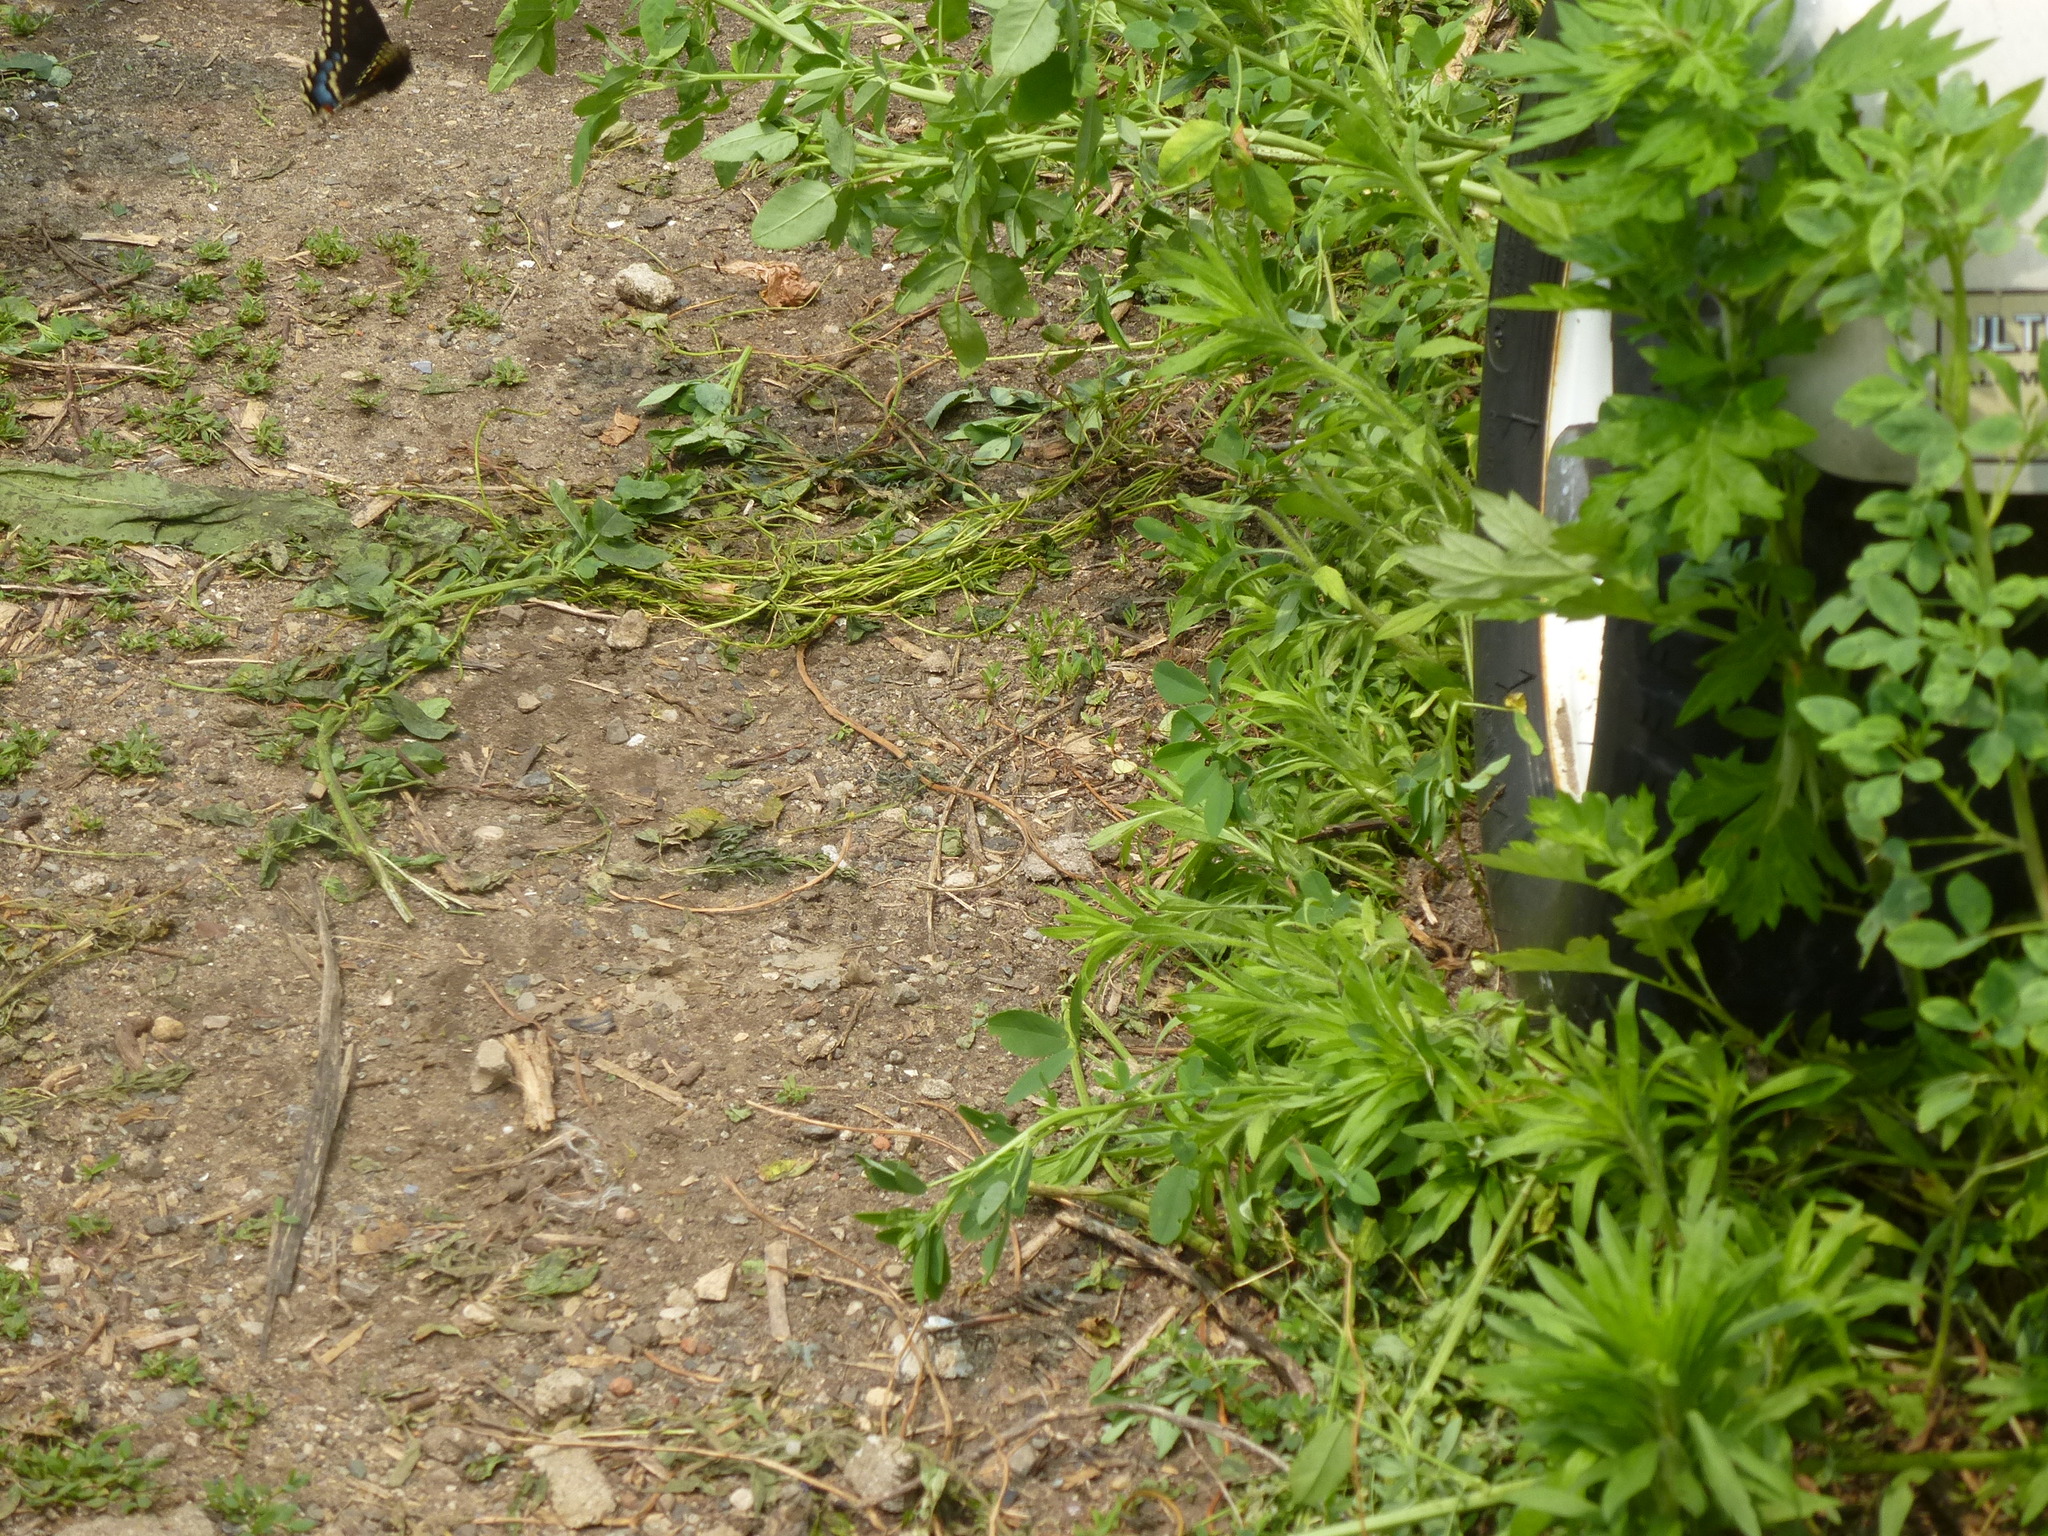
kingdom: Animalia
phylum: Arthropoda
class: Insecta
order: Lepidoptera
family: Papilionidae
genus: Papilio
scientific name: Papilio polyxenes
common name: Black swallowtail
